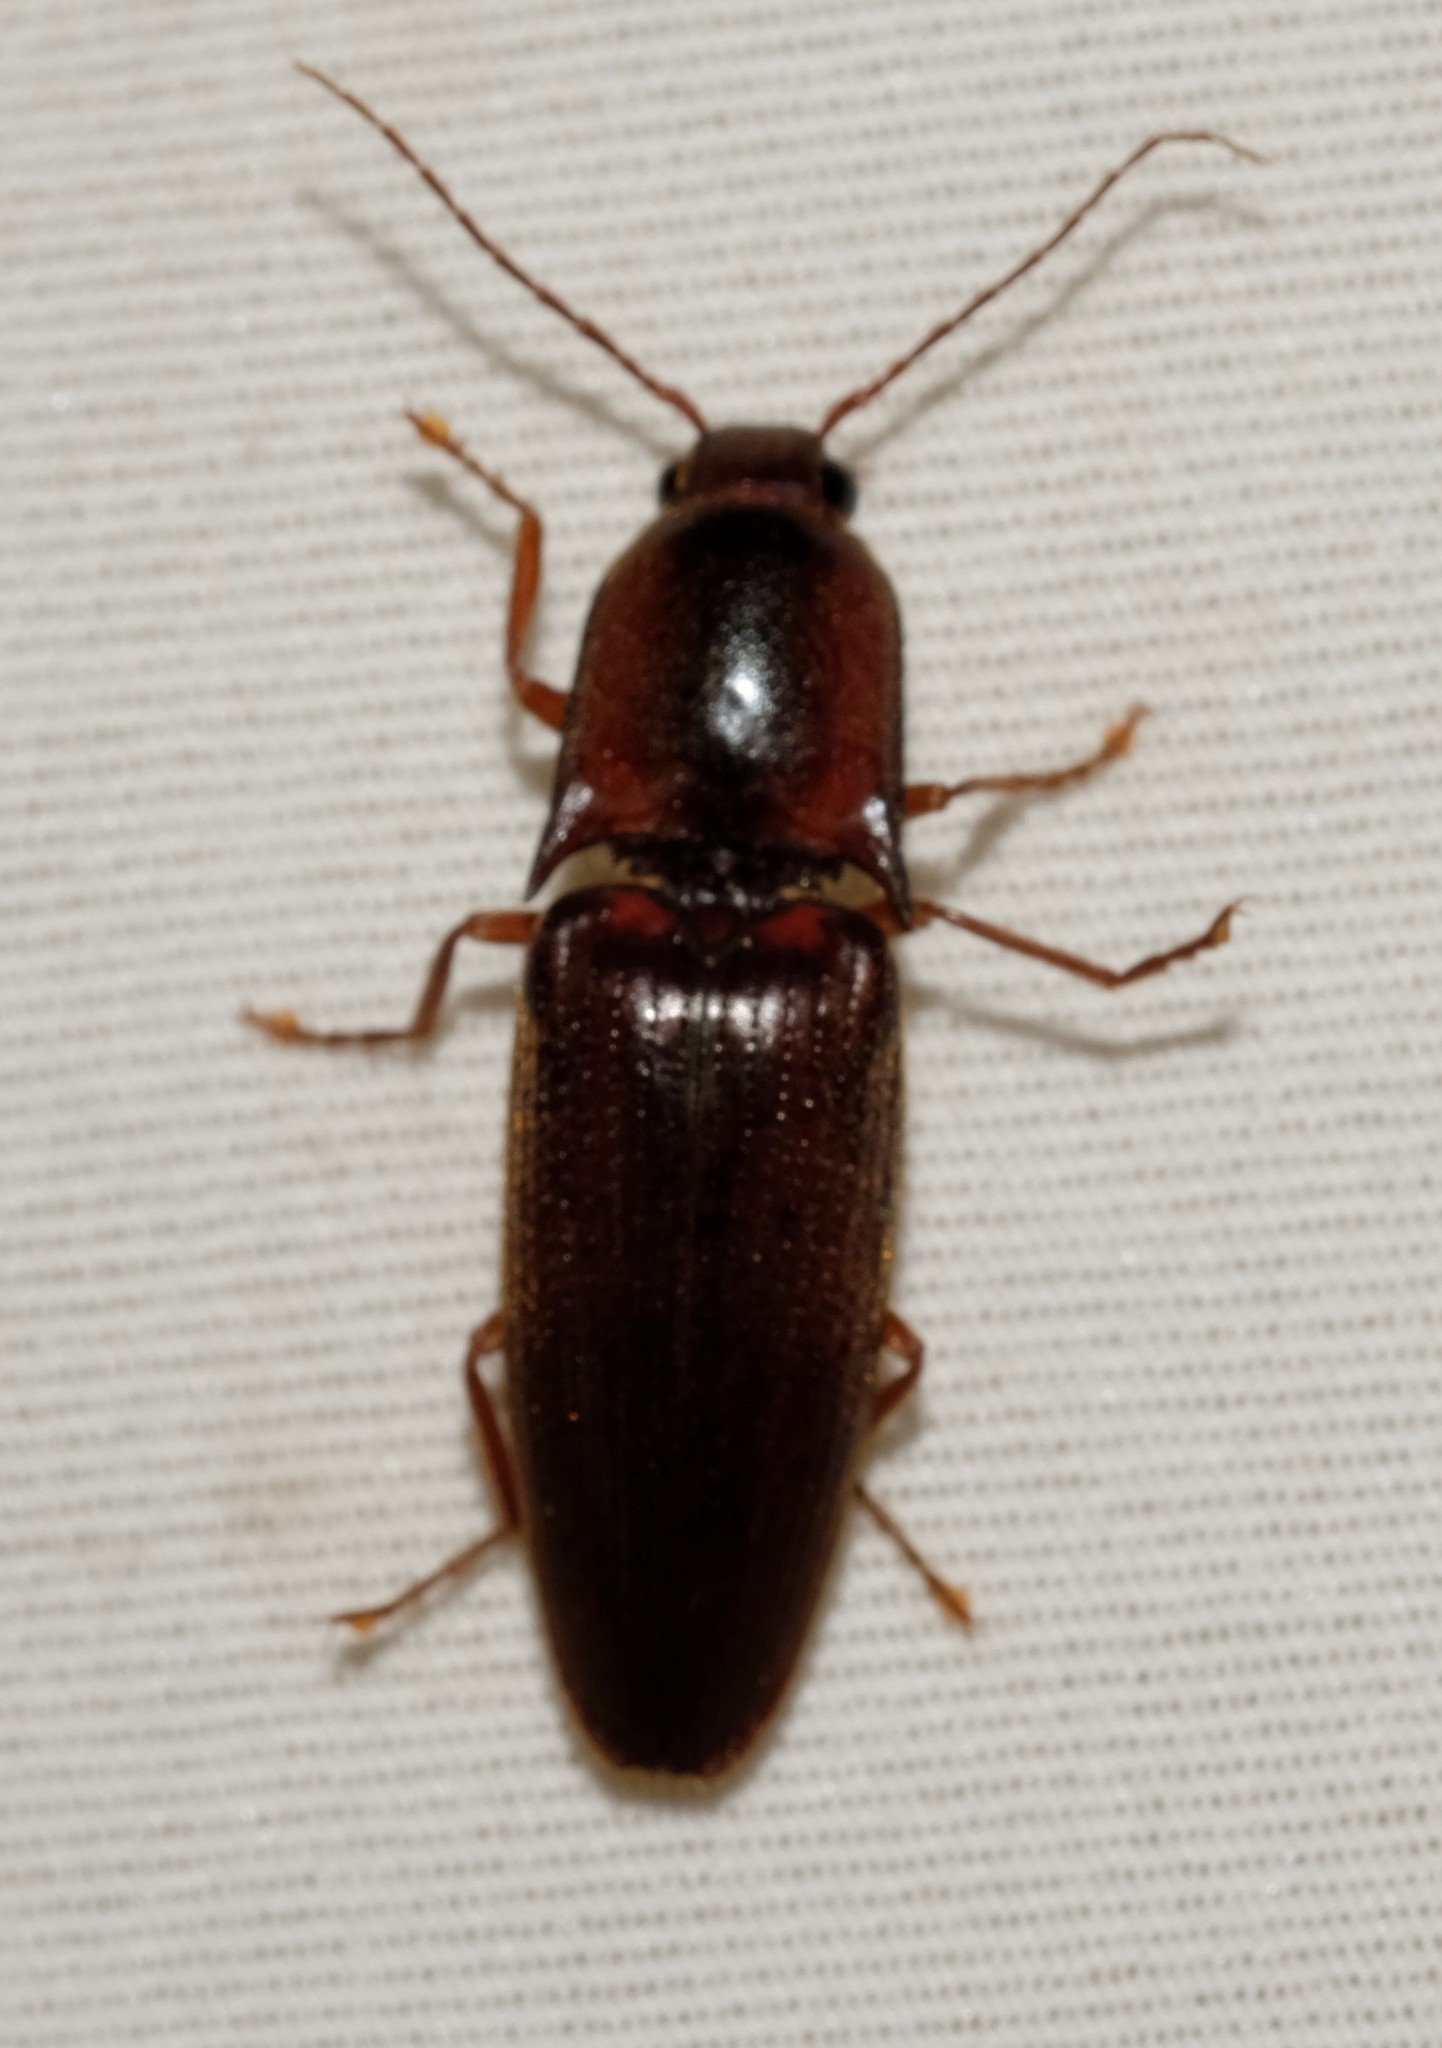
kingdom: Animalia
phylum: Arthropoda
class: Insecta
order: Coleoptera
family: Elateridae
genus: Monocrepidius
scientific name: Monocrepidius
